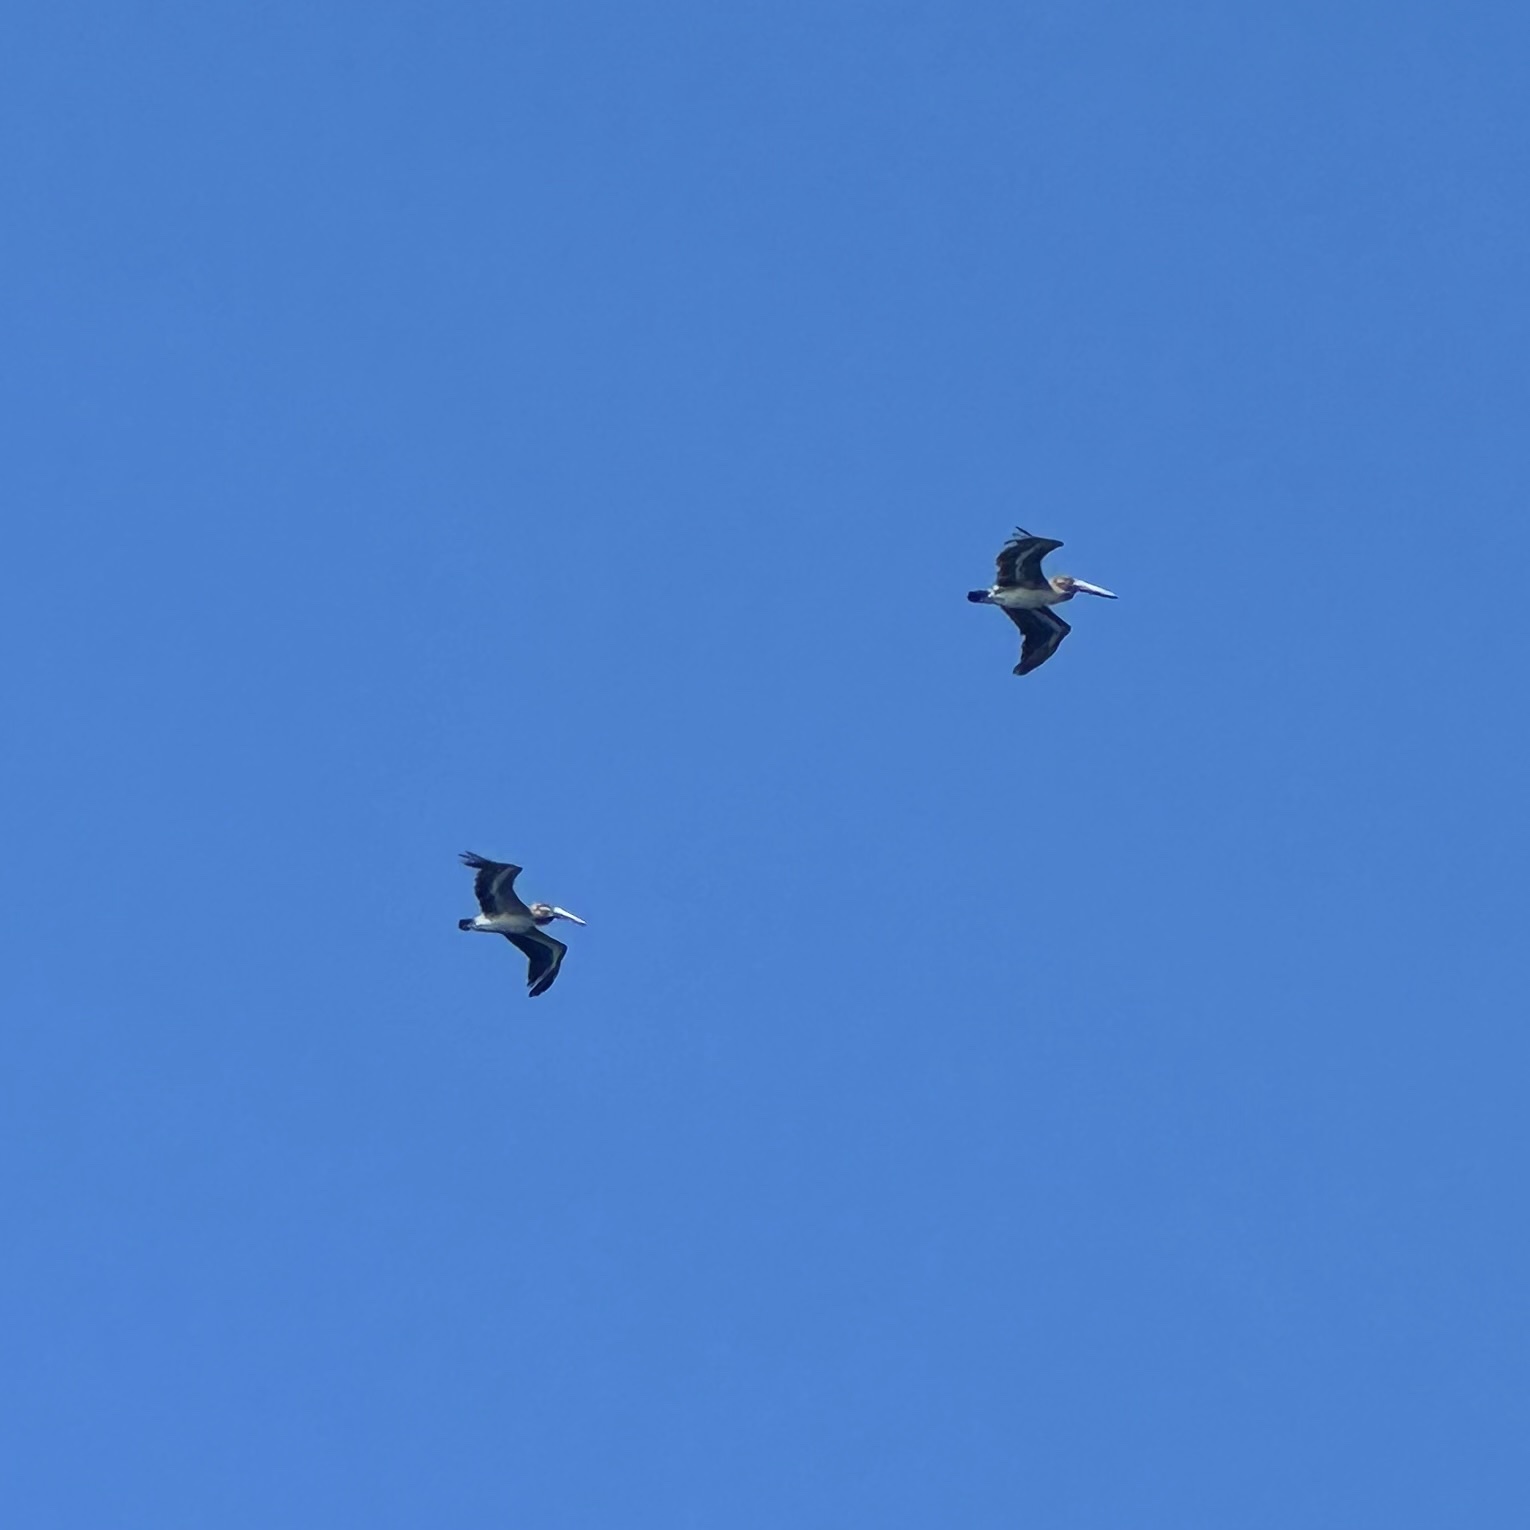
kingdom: Animalia
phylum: Chordata
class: Aves
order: Pelecaniformes
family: Pelecanidae
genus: Pelecanus
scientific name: Pelecanus occidentalis
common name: Brown pelican
